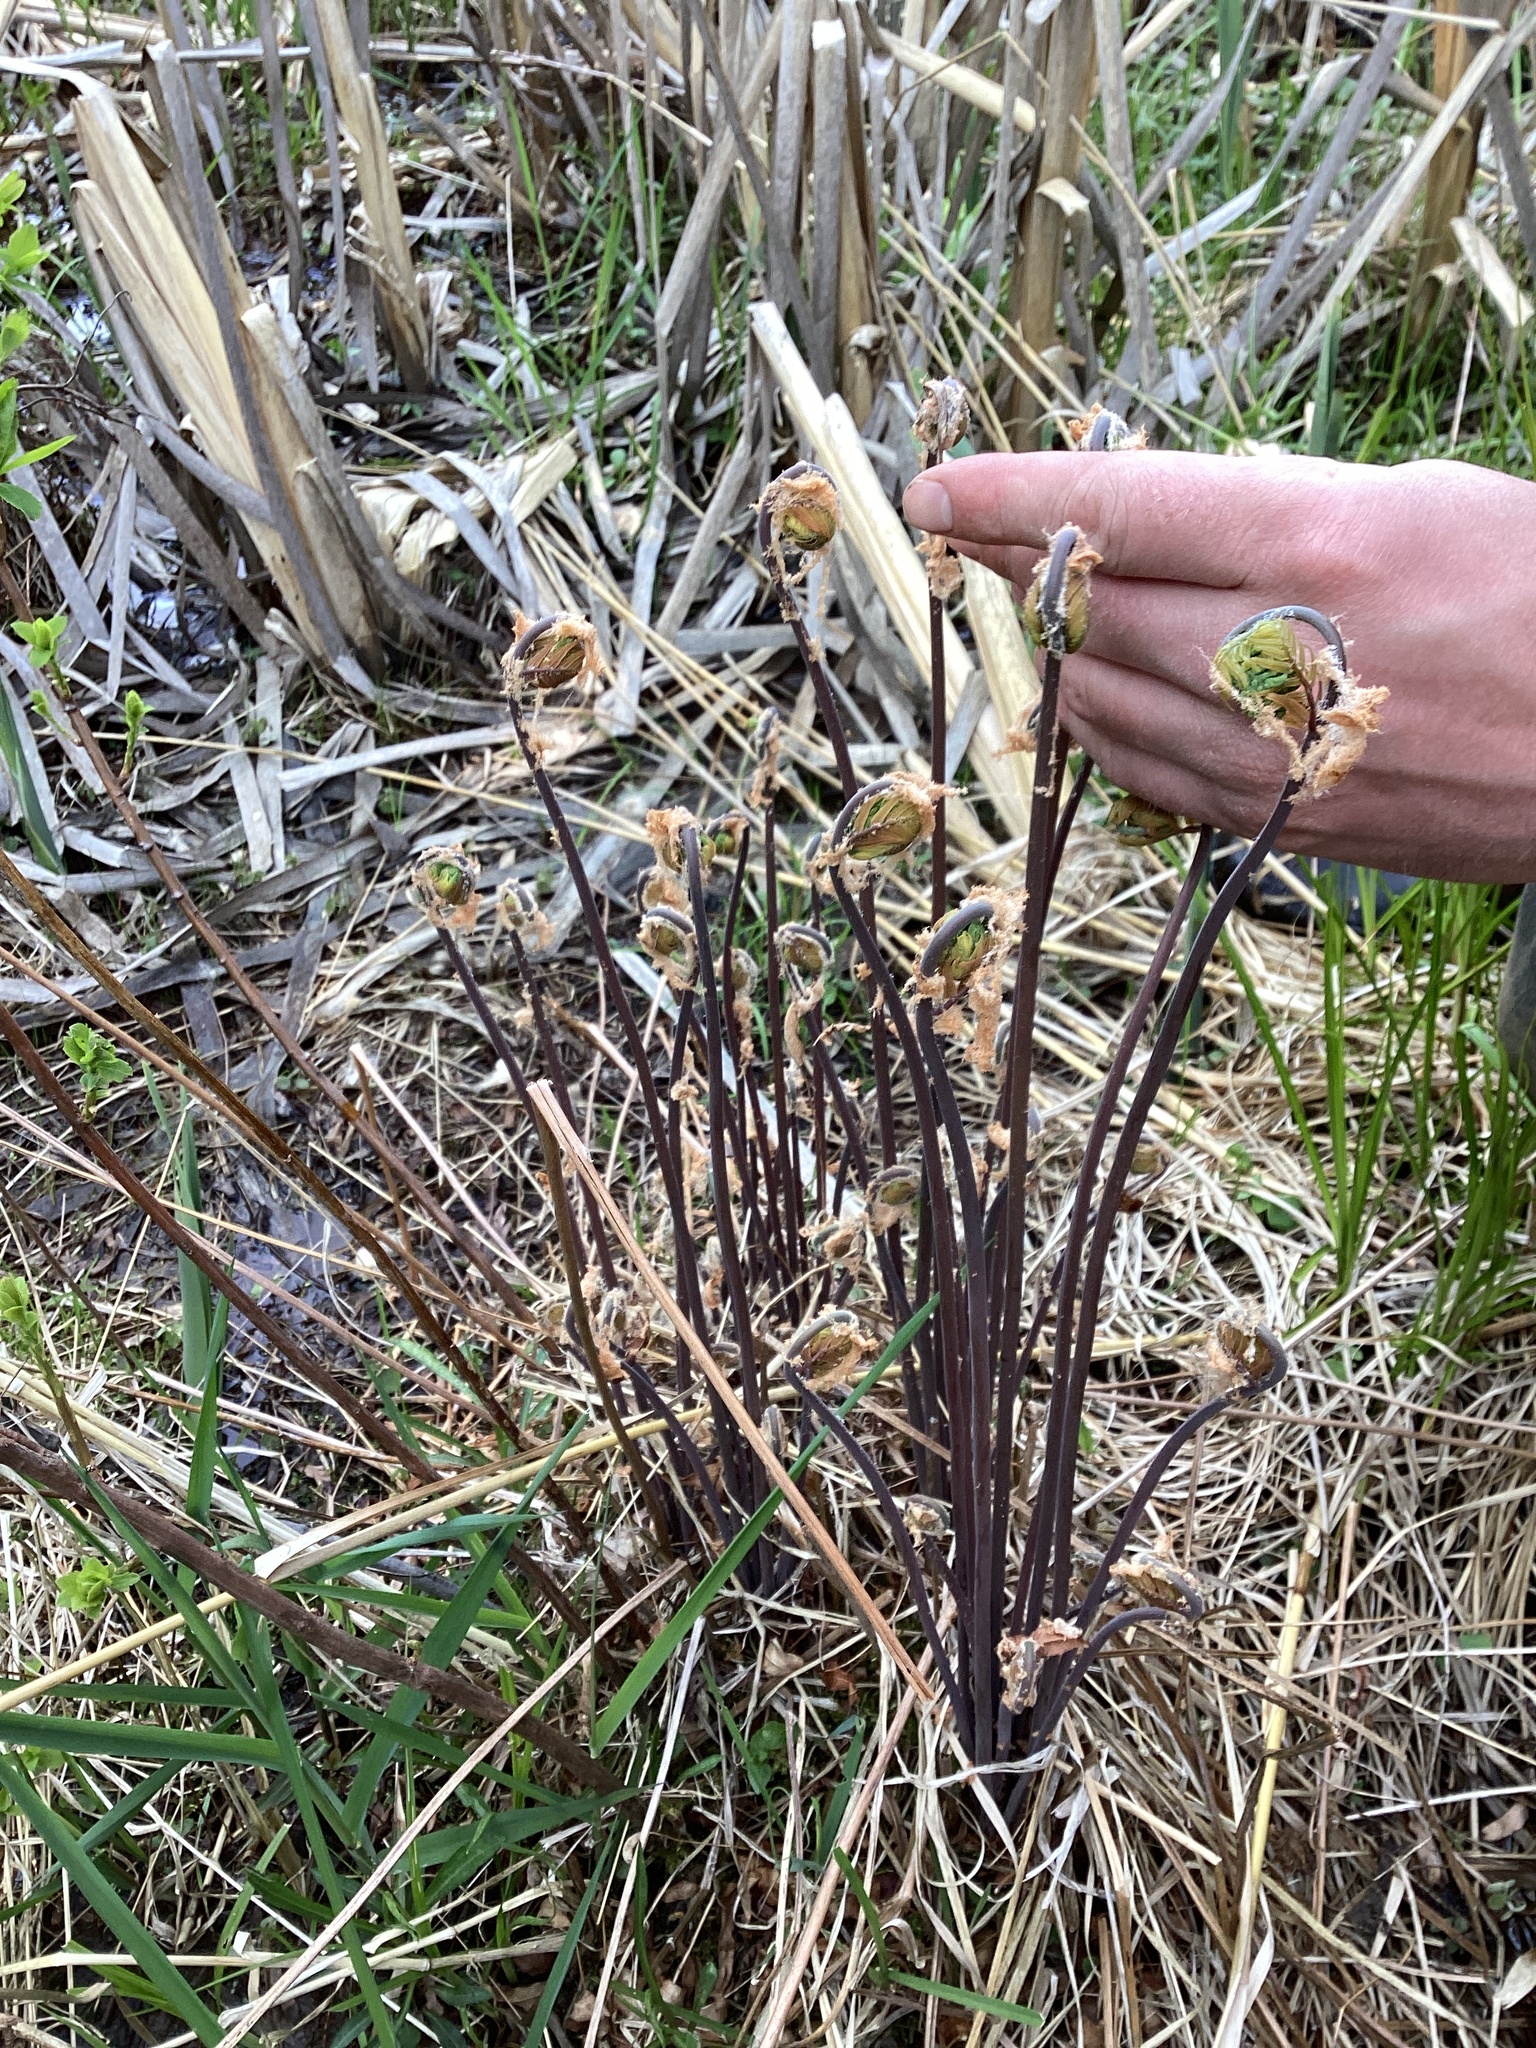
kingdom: Plantae
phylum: Tracheophyta
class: Polypodiopsida
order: Osmundales
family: Osmundaceae
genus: Osmunda
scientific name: Osmunda spectabilis
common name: American royal fern
